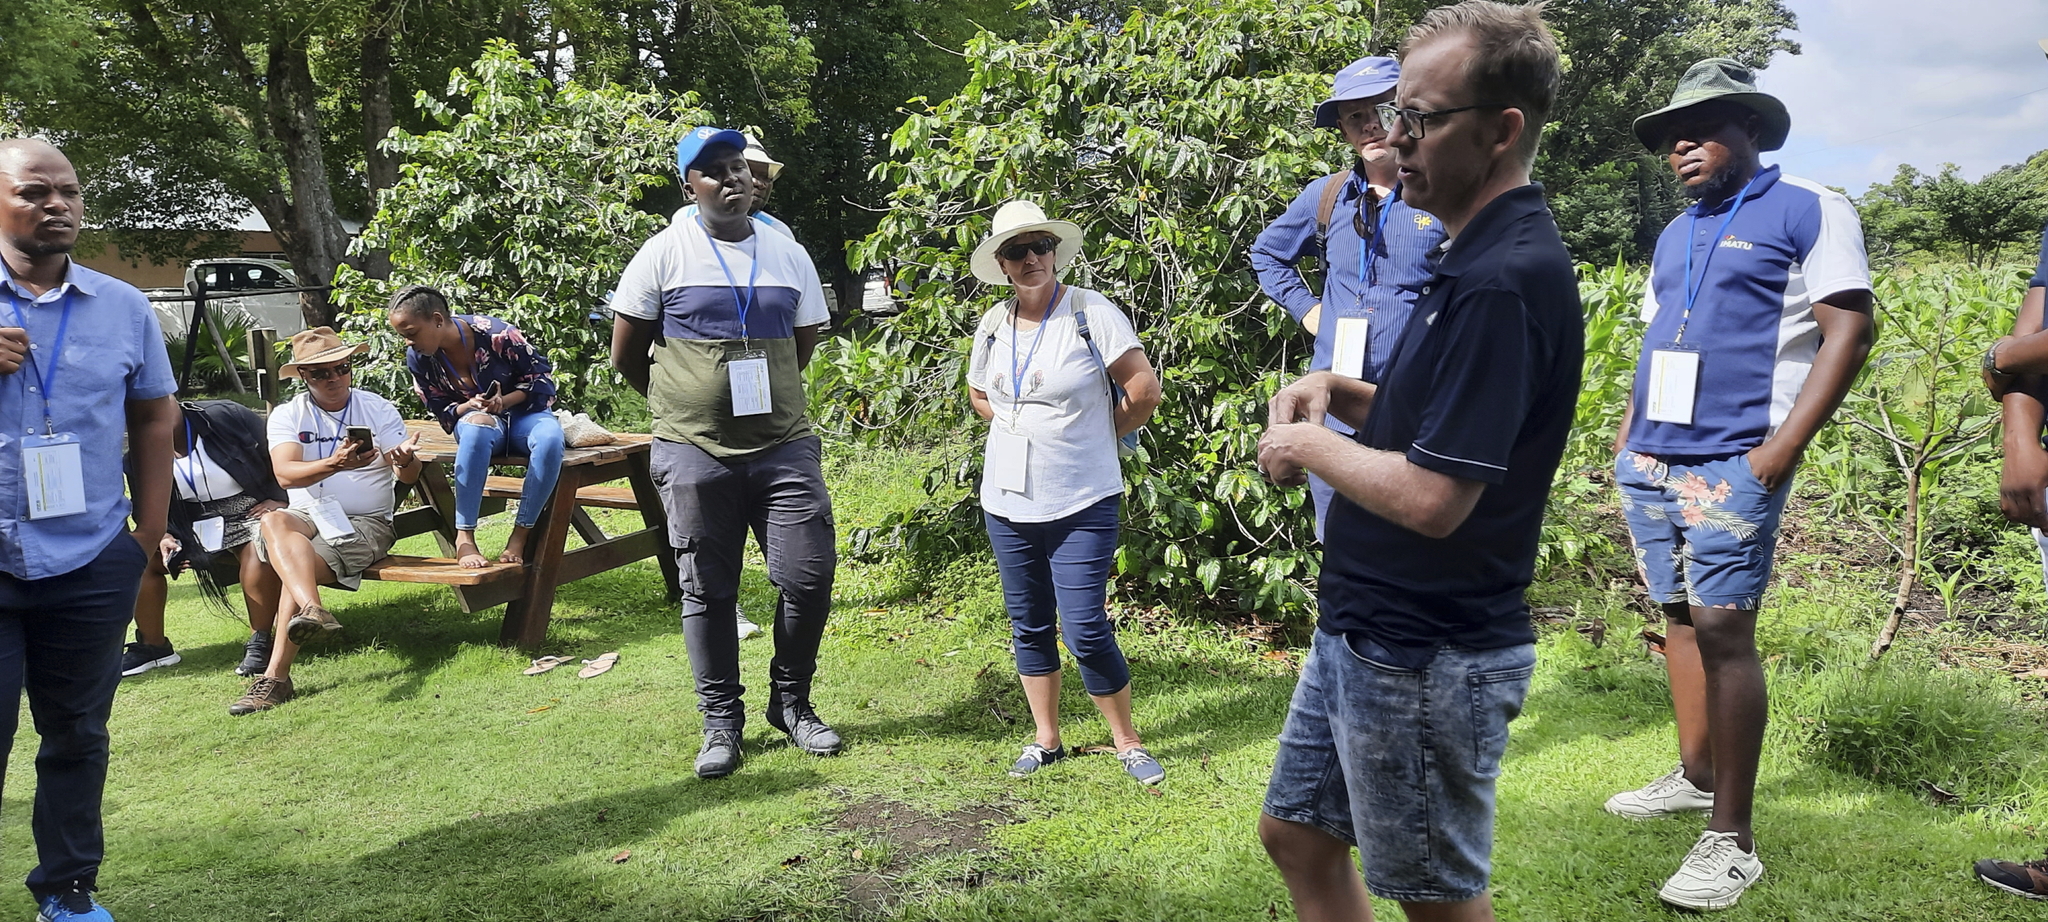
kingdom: Animalia
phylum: Chordata
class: Aves
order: Bucerotiformes
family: Bucerotidae
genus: Bycanistes
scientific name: Bycanistes bucinator
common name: Trumpeter hornbill
